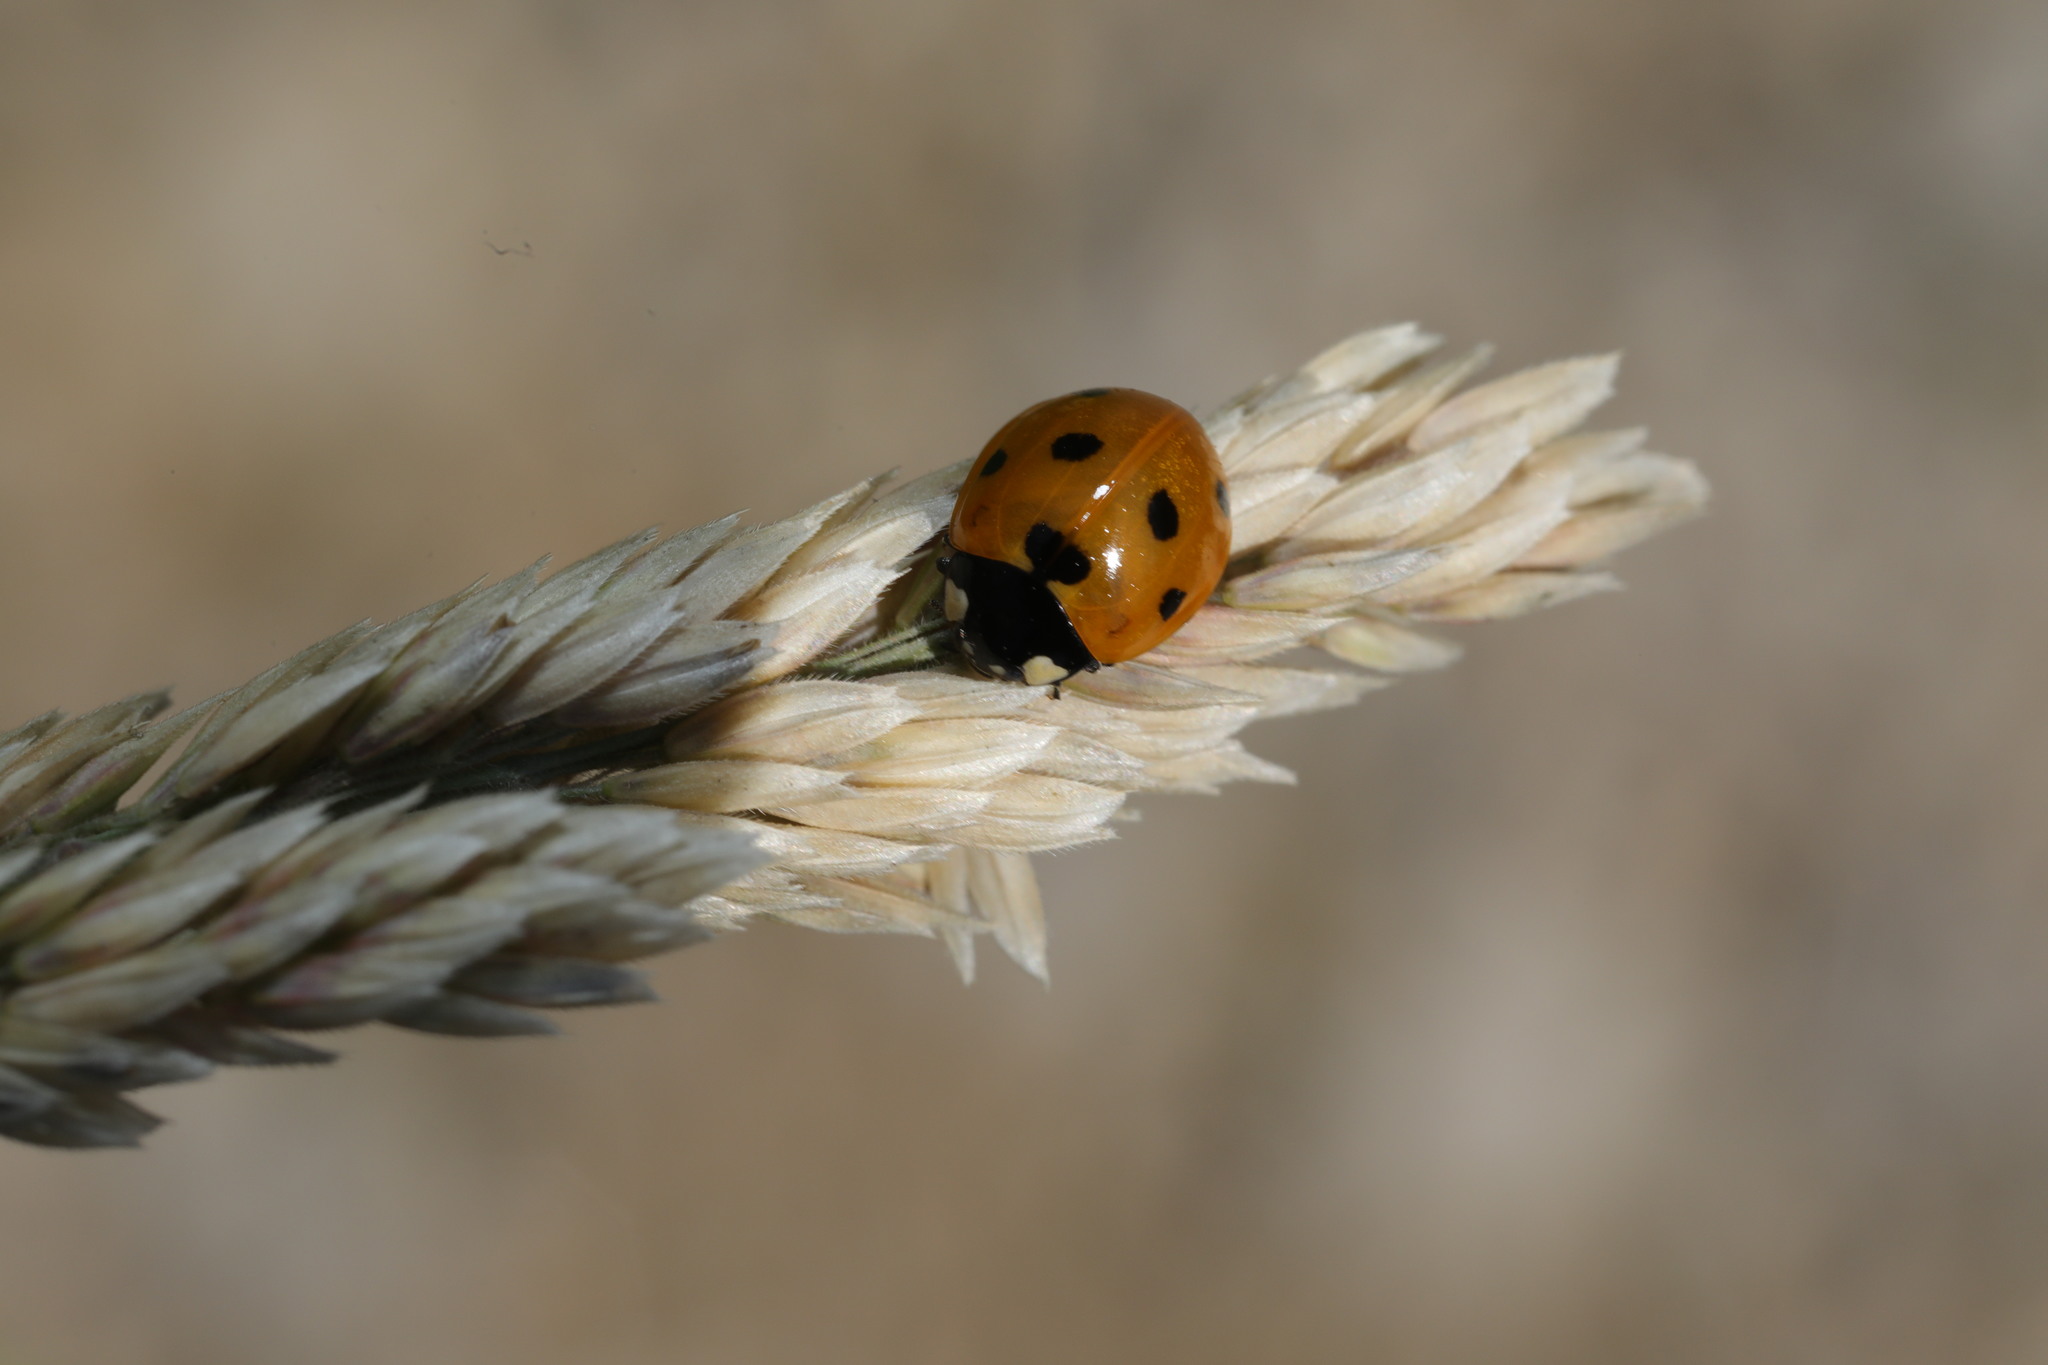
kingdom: Animalia
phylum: Arthropoda
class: Insecta
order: Coleoptera
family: Coccinellidae
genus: Coccinella
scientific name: Coccinella septempunctata
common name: Sevenspotted lady beetle
